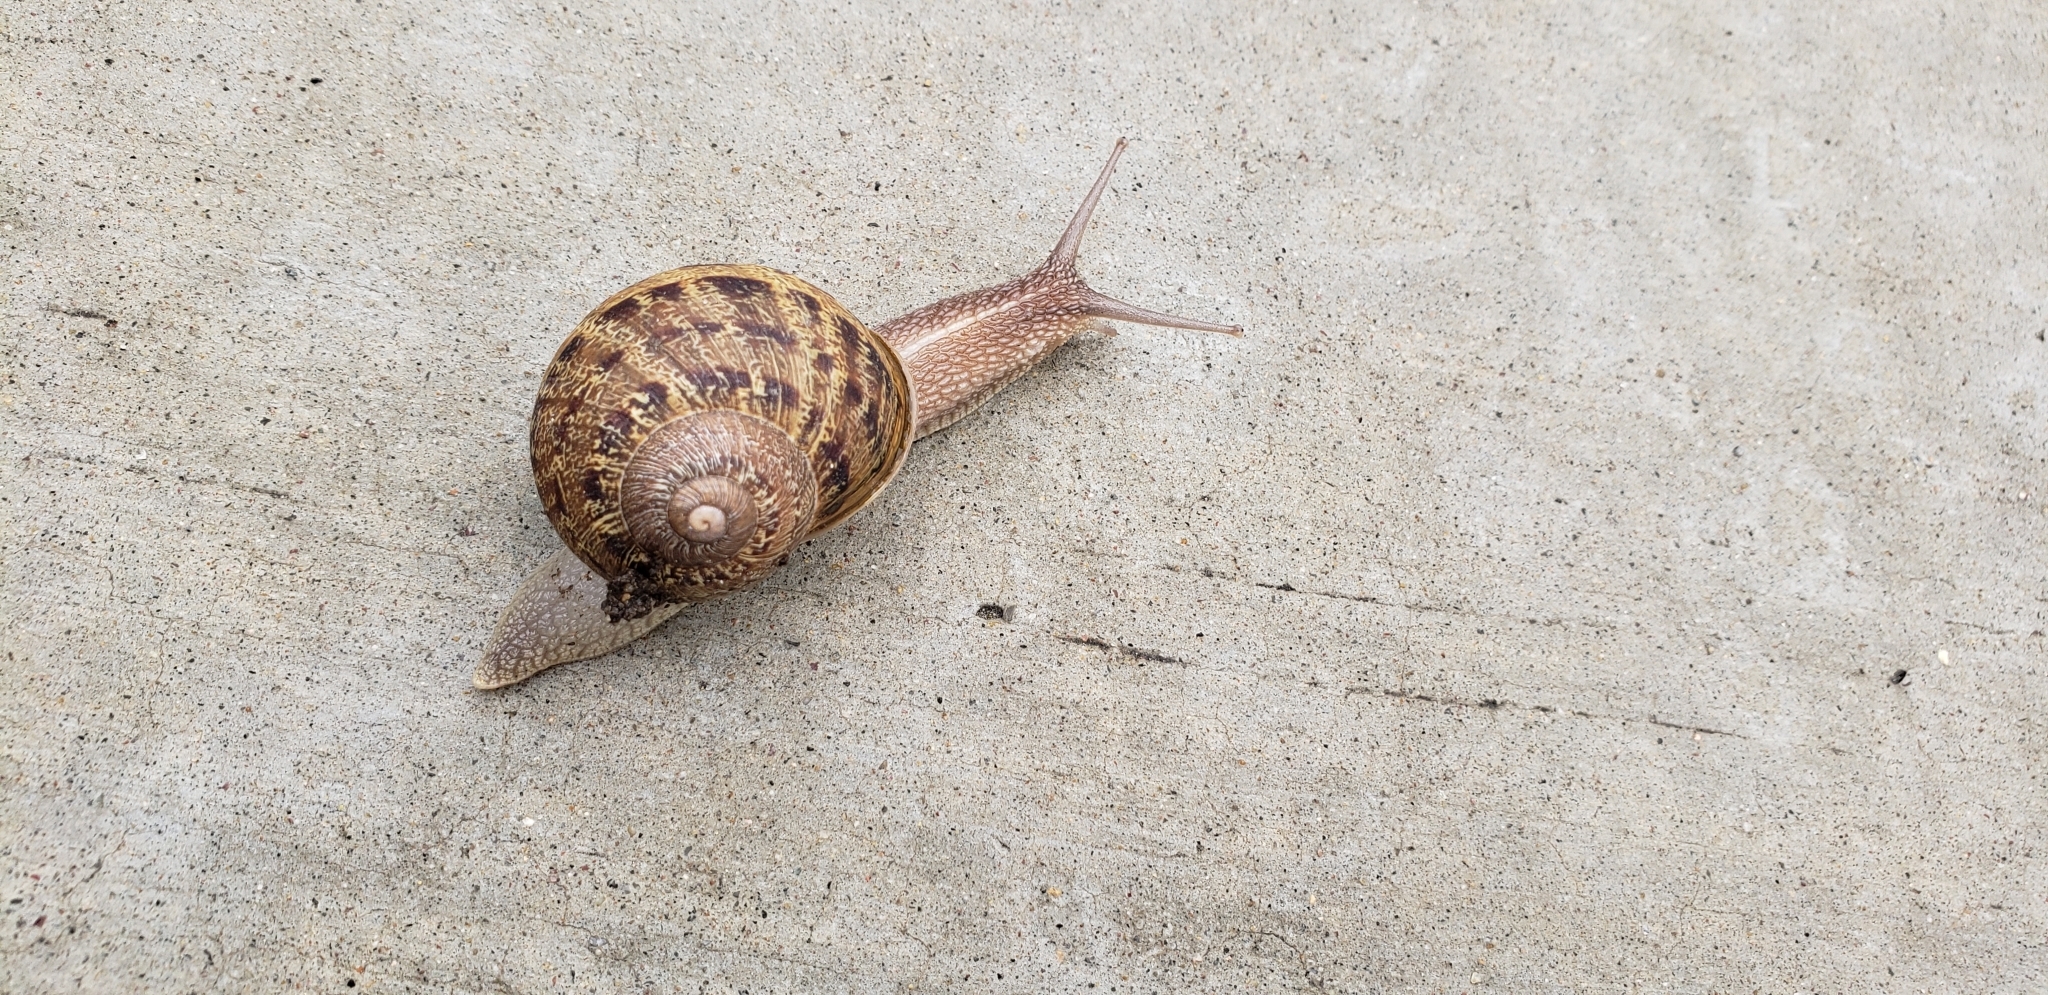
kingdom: Animalia
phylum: Mollusca
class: Gastropoda
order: Stylommatophora
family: Helicidae
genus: Cornu
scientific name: Cornu aspersum
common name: Brown garden snail
